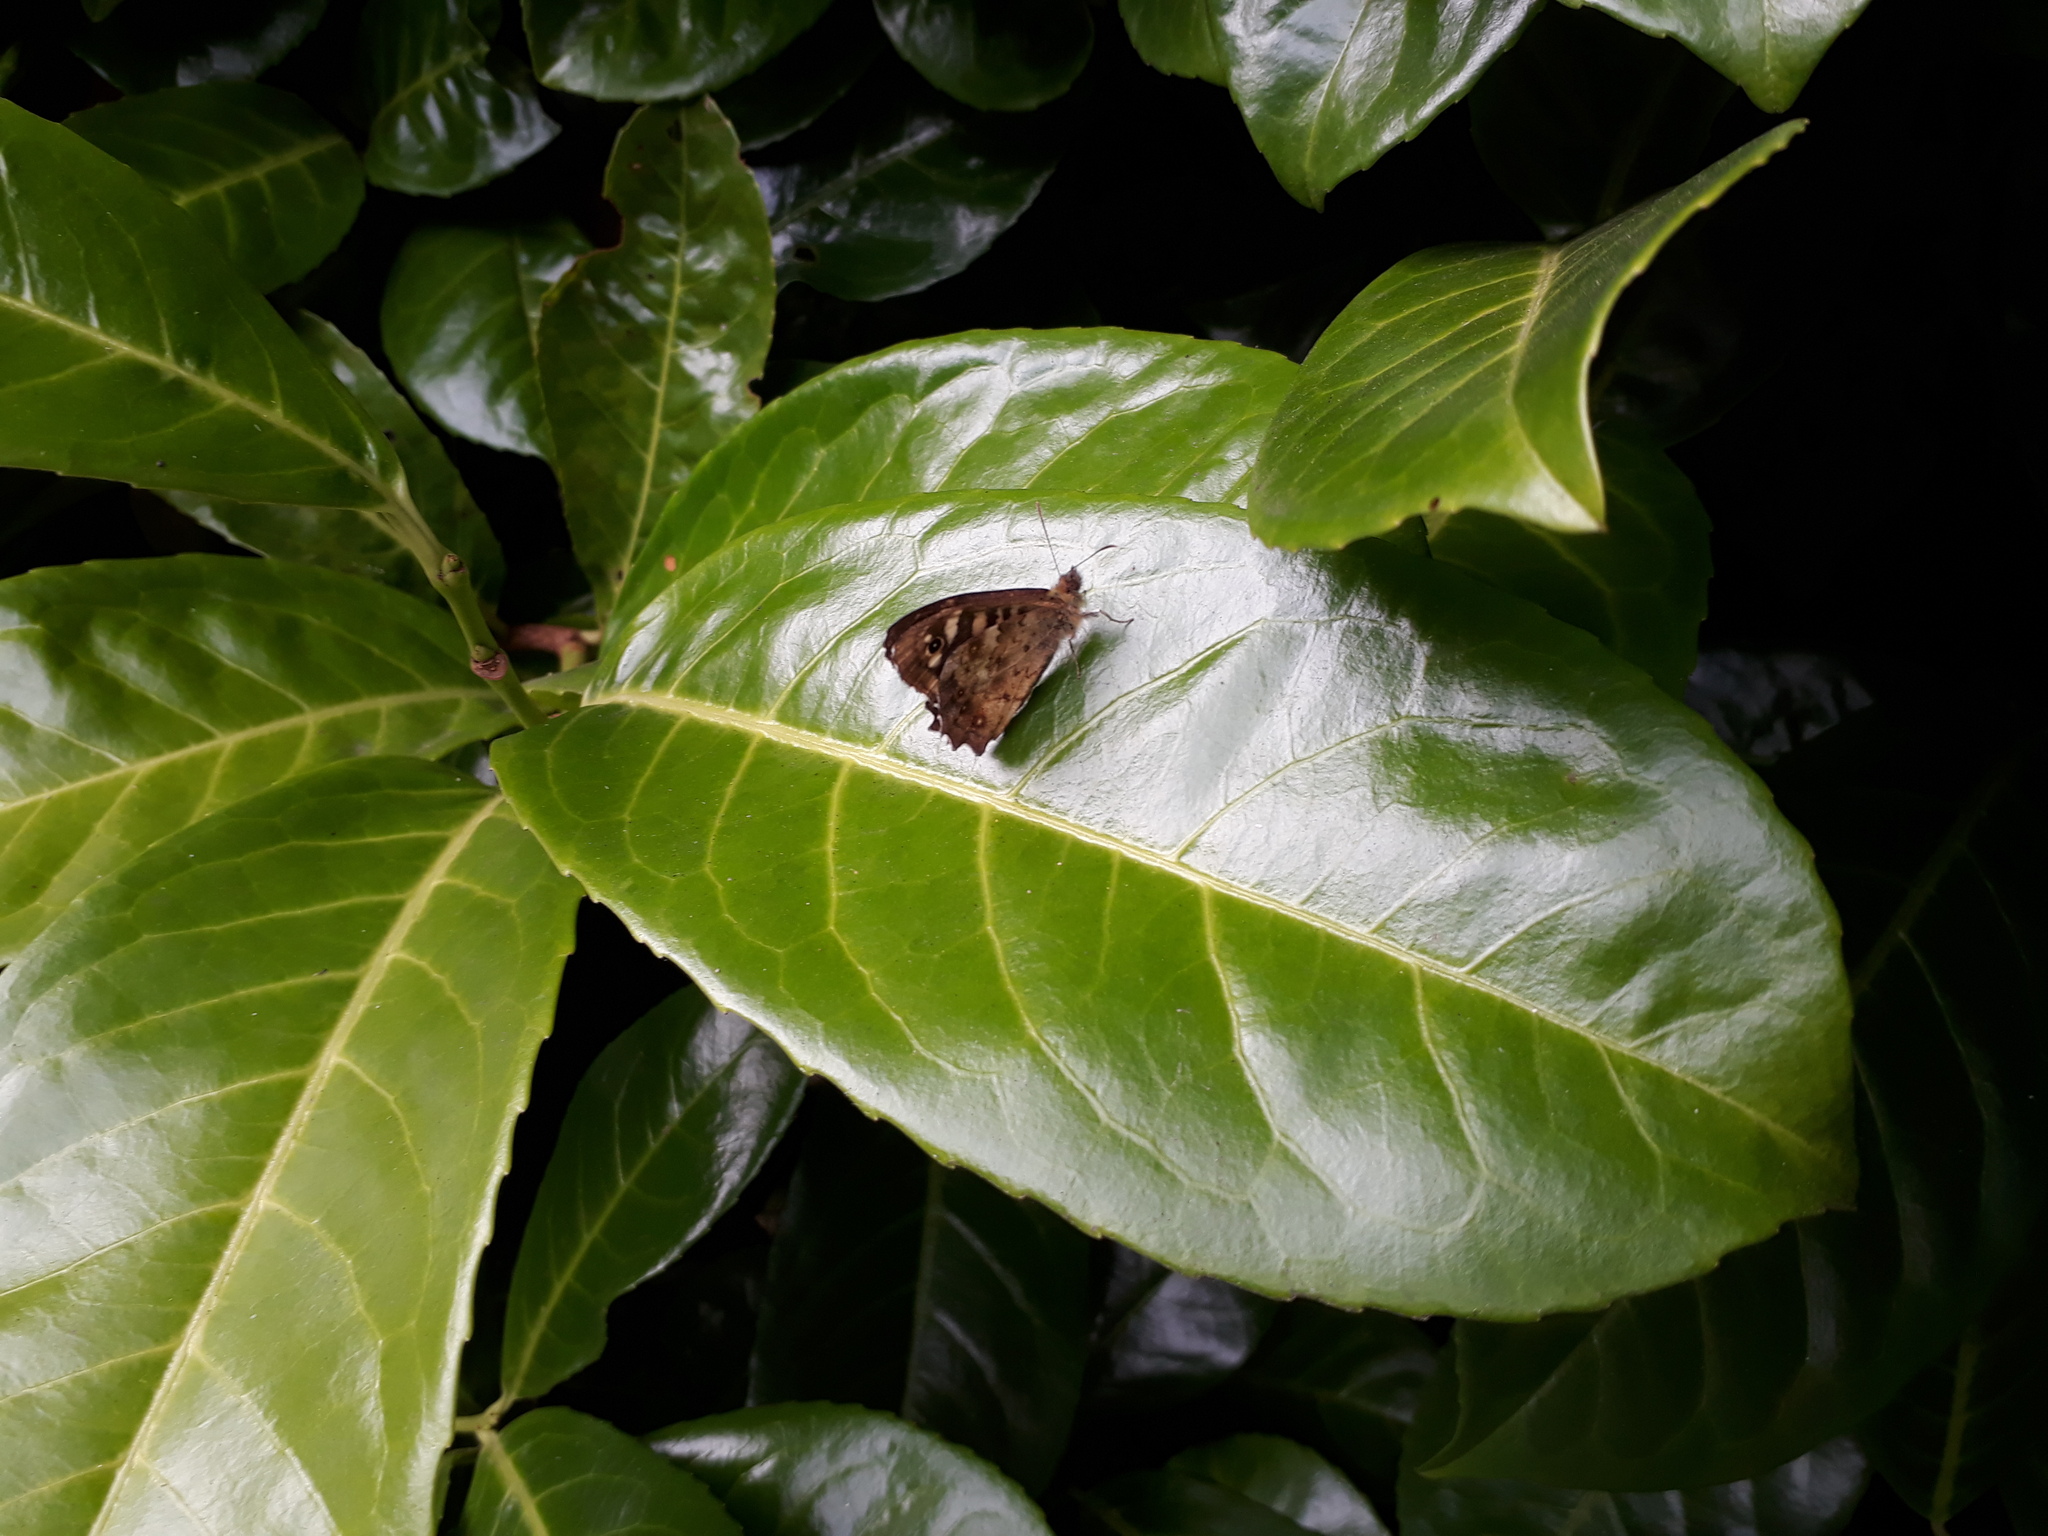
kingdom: Animalia
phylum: Arthropoda
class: Insecta
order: Lepidoptera
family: Nymphalidae
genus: Pararge
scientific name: Pararge aegeria
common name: Speckled wood
